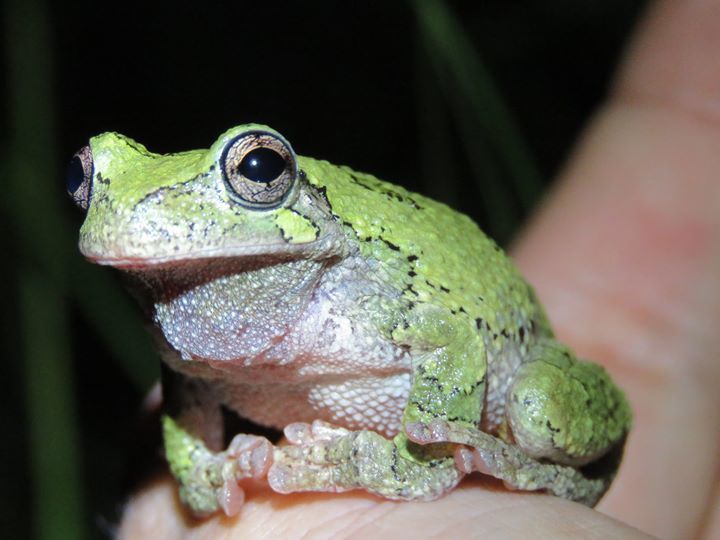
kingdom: Animalia
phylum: Chordata
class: Amphibia
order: Anura
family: Hylidae
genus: Hyla
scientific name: Hyla
